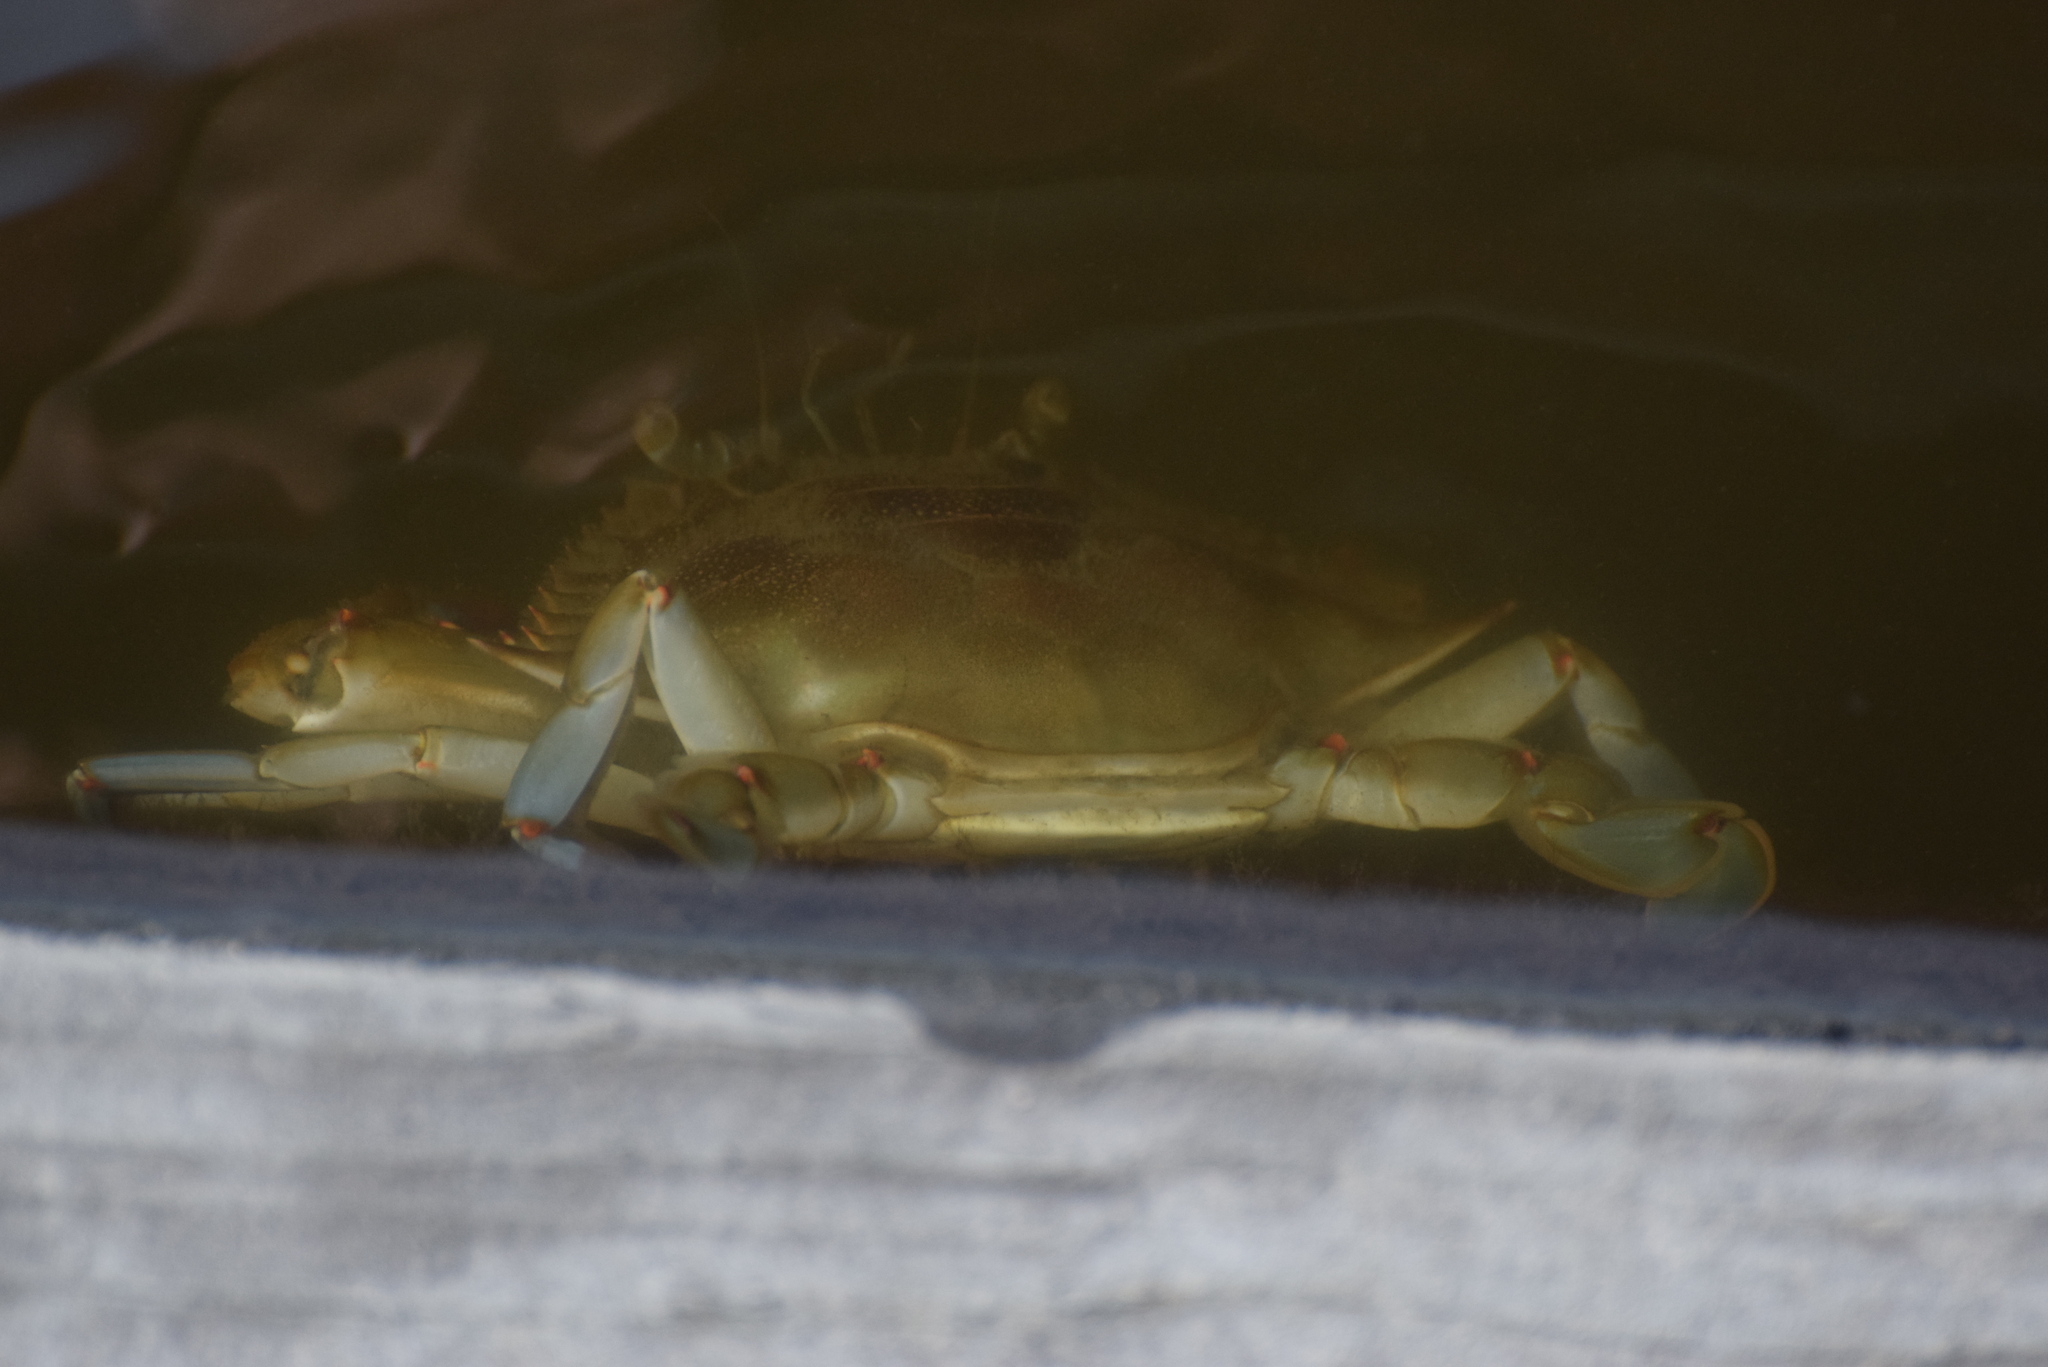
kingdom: Animalia
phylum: Arthropoda
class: Malacostraca
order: Decapoda
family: Portunidae
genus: Callinectes
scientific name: Callinectes sapidus
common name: Blue crab
